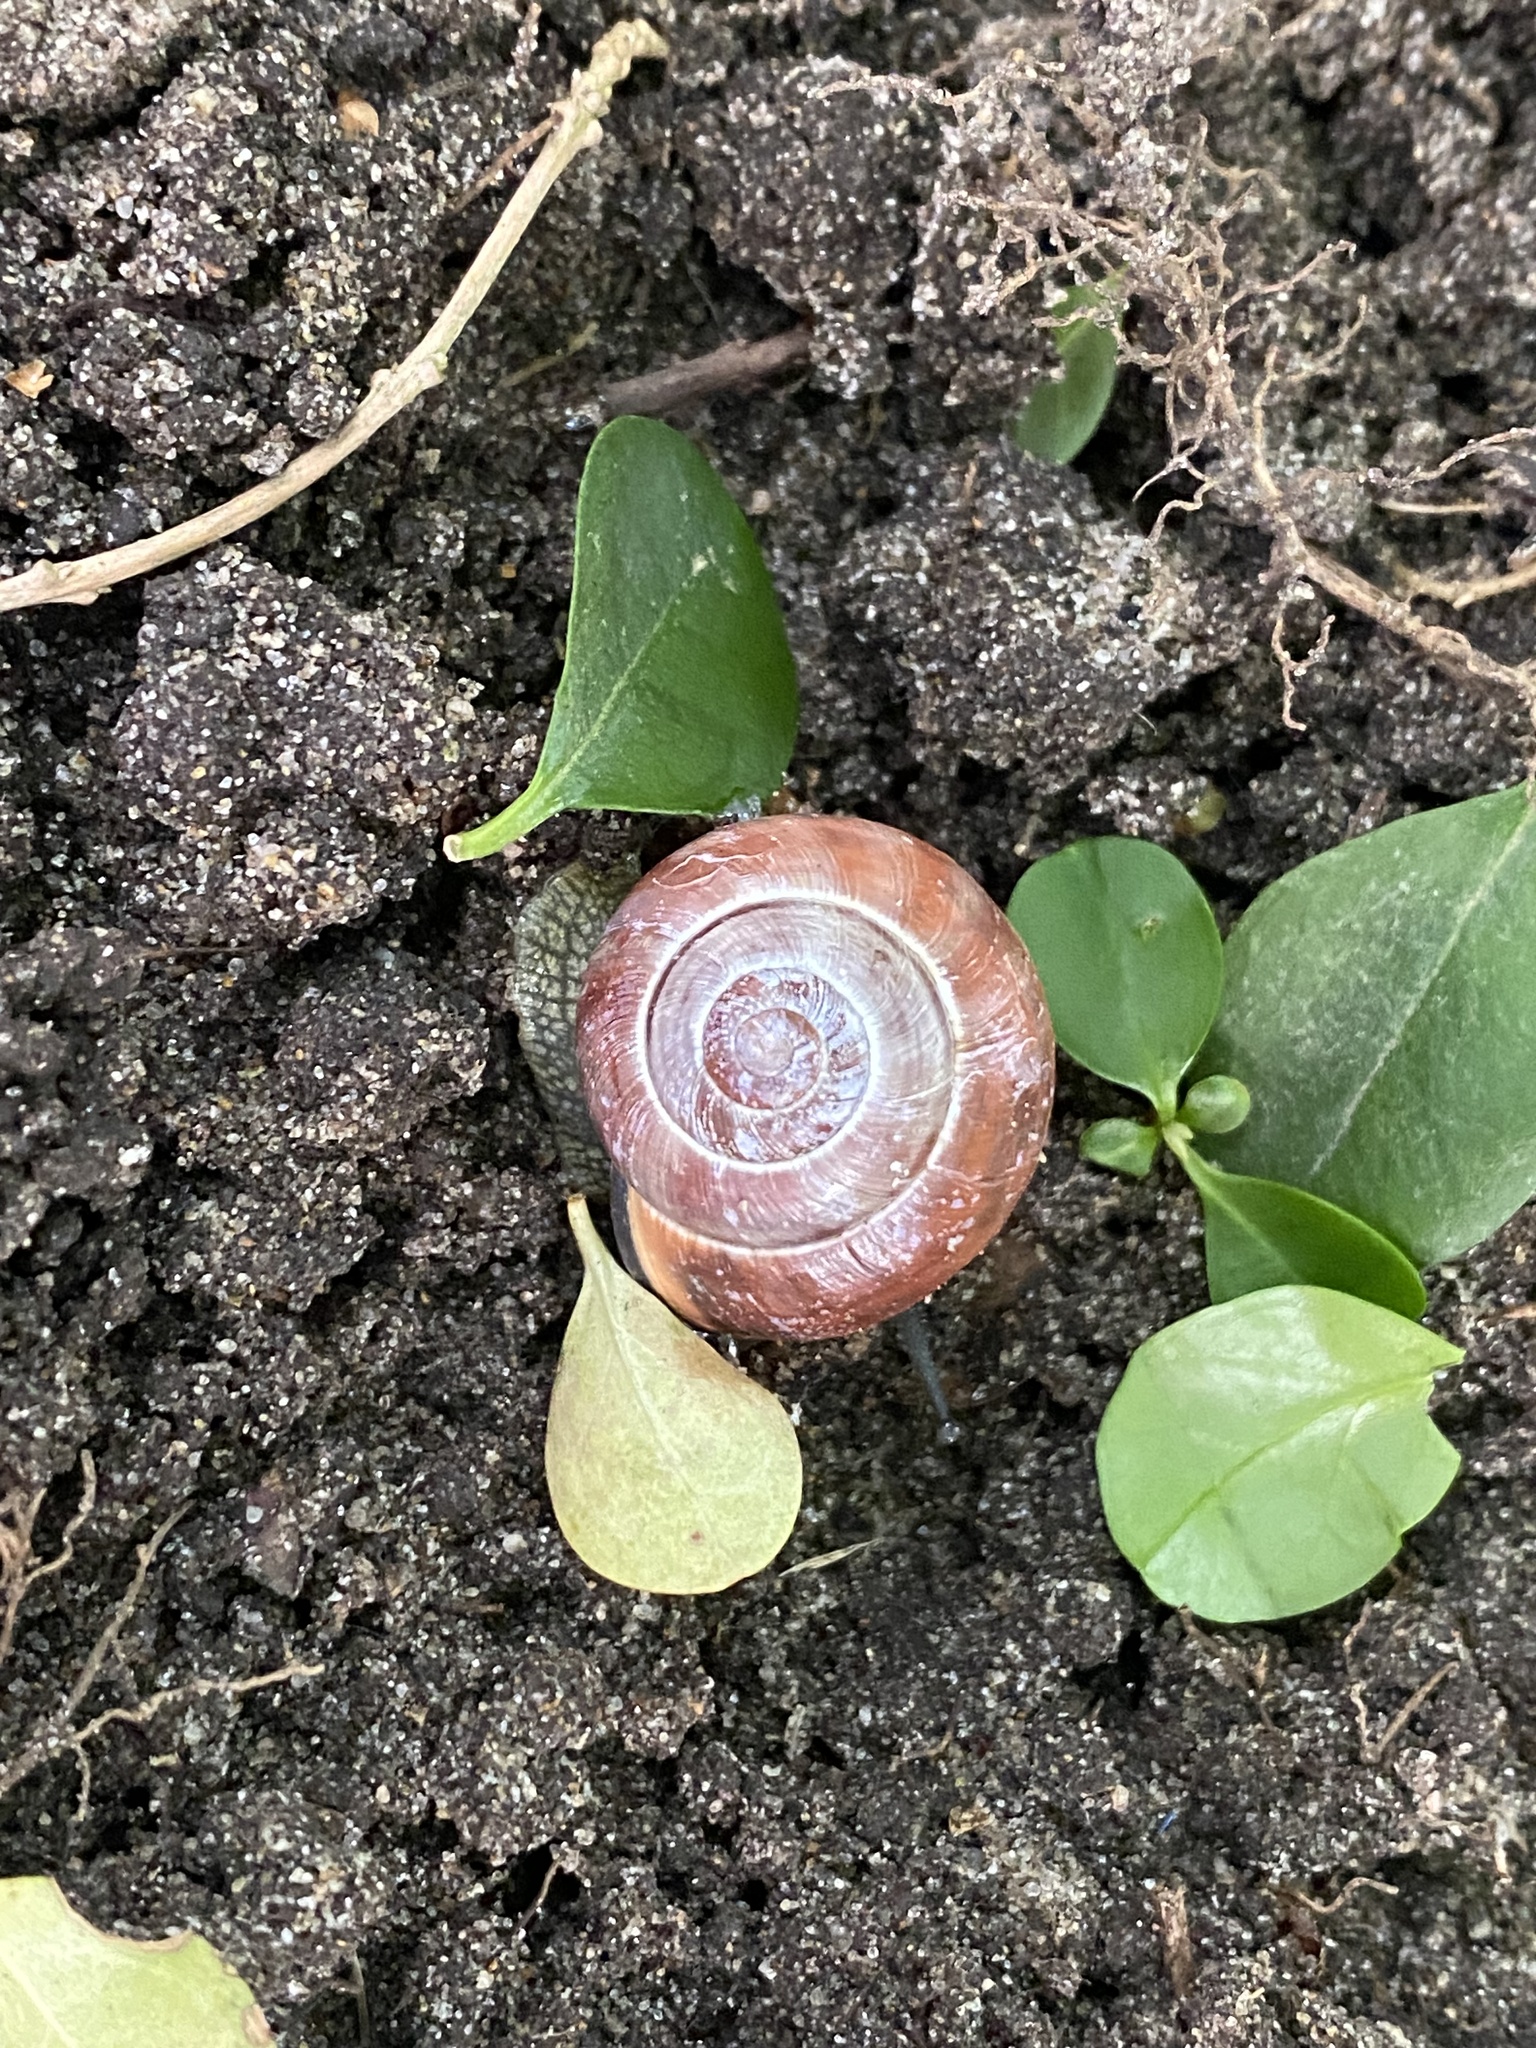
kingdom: Animalia
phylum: Mollusca
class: Gastropoda
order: Stylommatophora
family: Helicidae
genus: Cepaea
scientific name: Cepaea nemoralis
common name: Grovesnail
